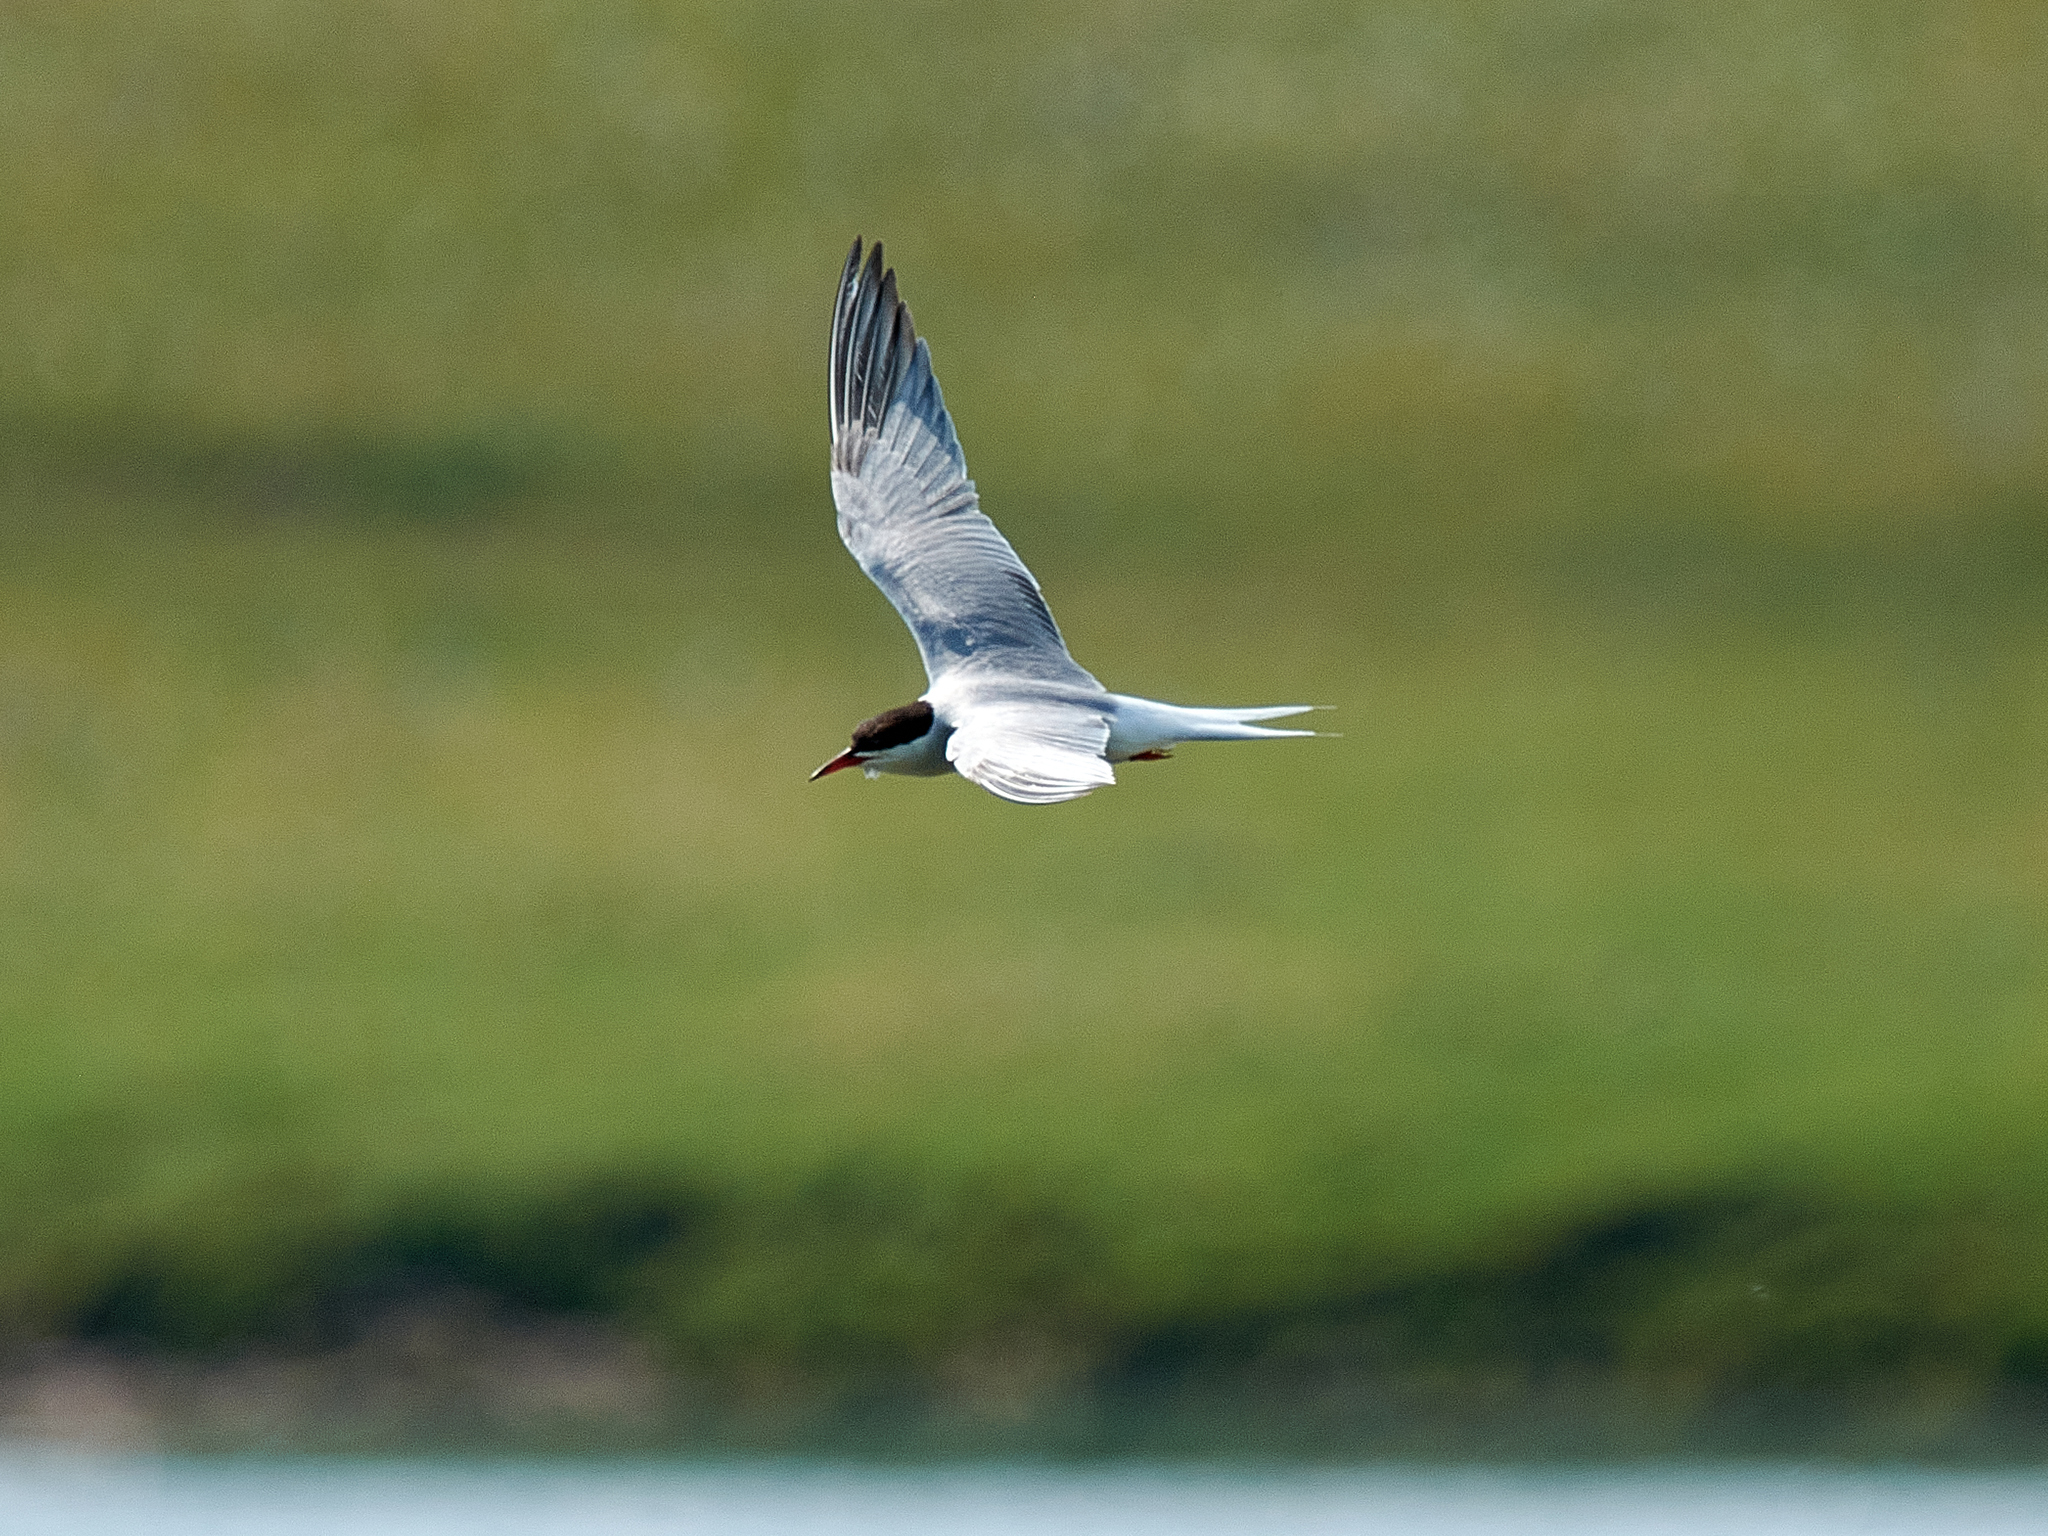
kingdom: Animalia
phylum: Chordata
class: Aves
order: Charadriiformes
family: Laridae
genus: Sterna
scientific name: Sterna hirundo
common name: Common tern
